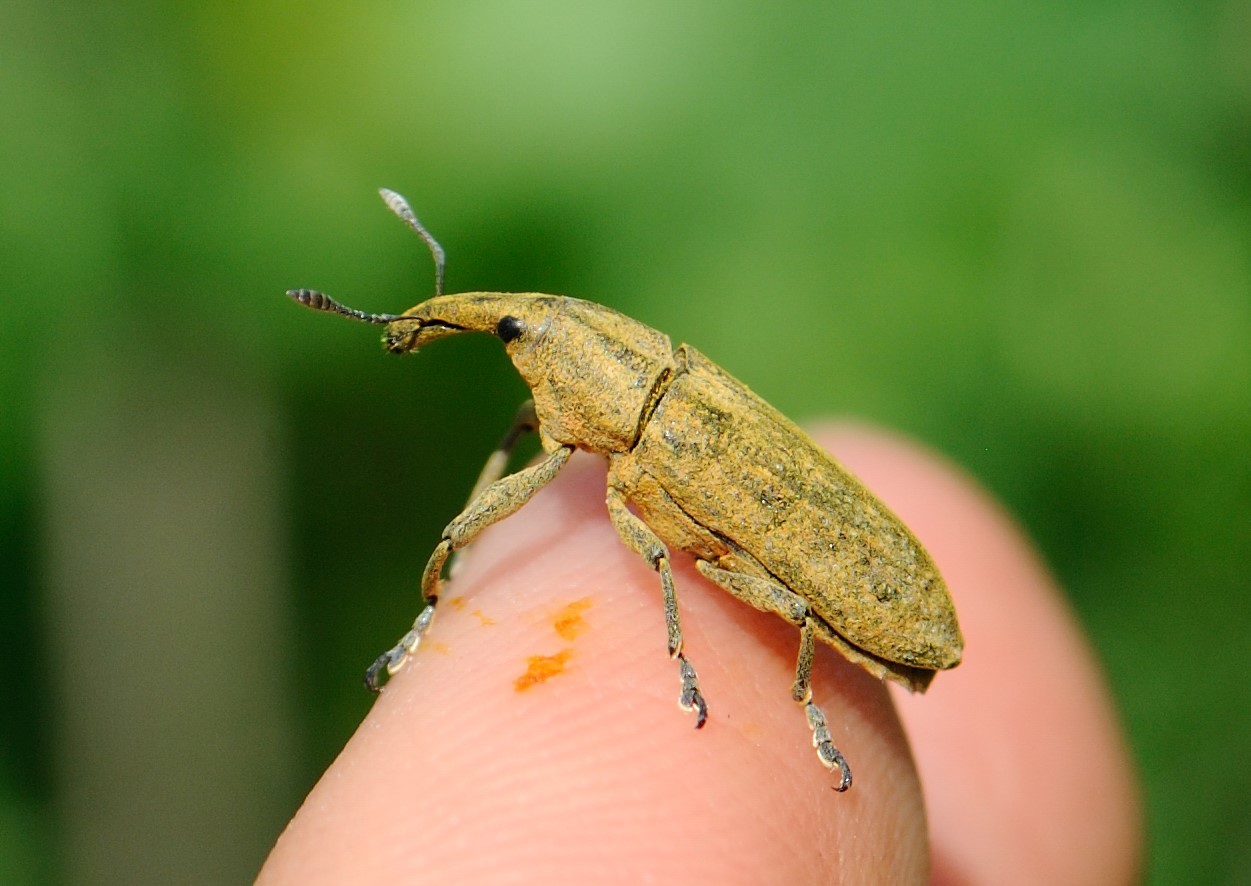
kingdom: Animalia
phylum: Arthropoda
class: Insecta
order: Coleoptera
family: Curculionidae
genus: Lixus
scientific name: Lixus concavus
